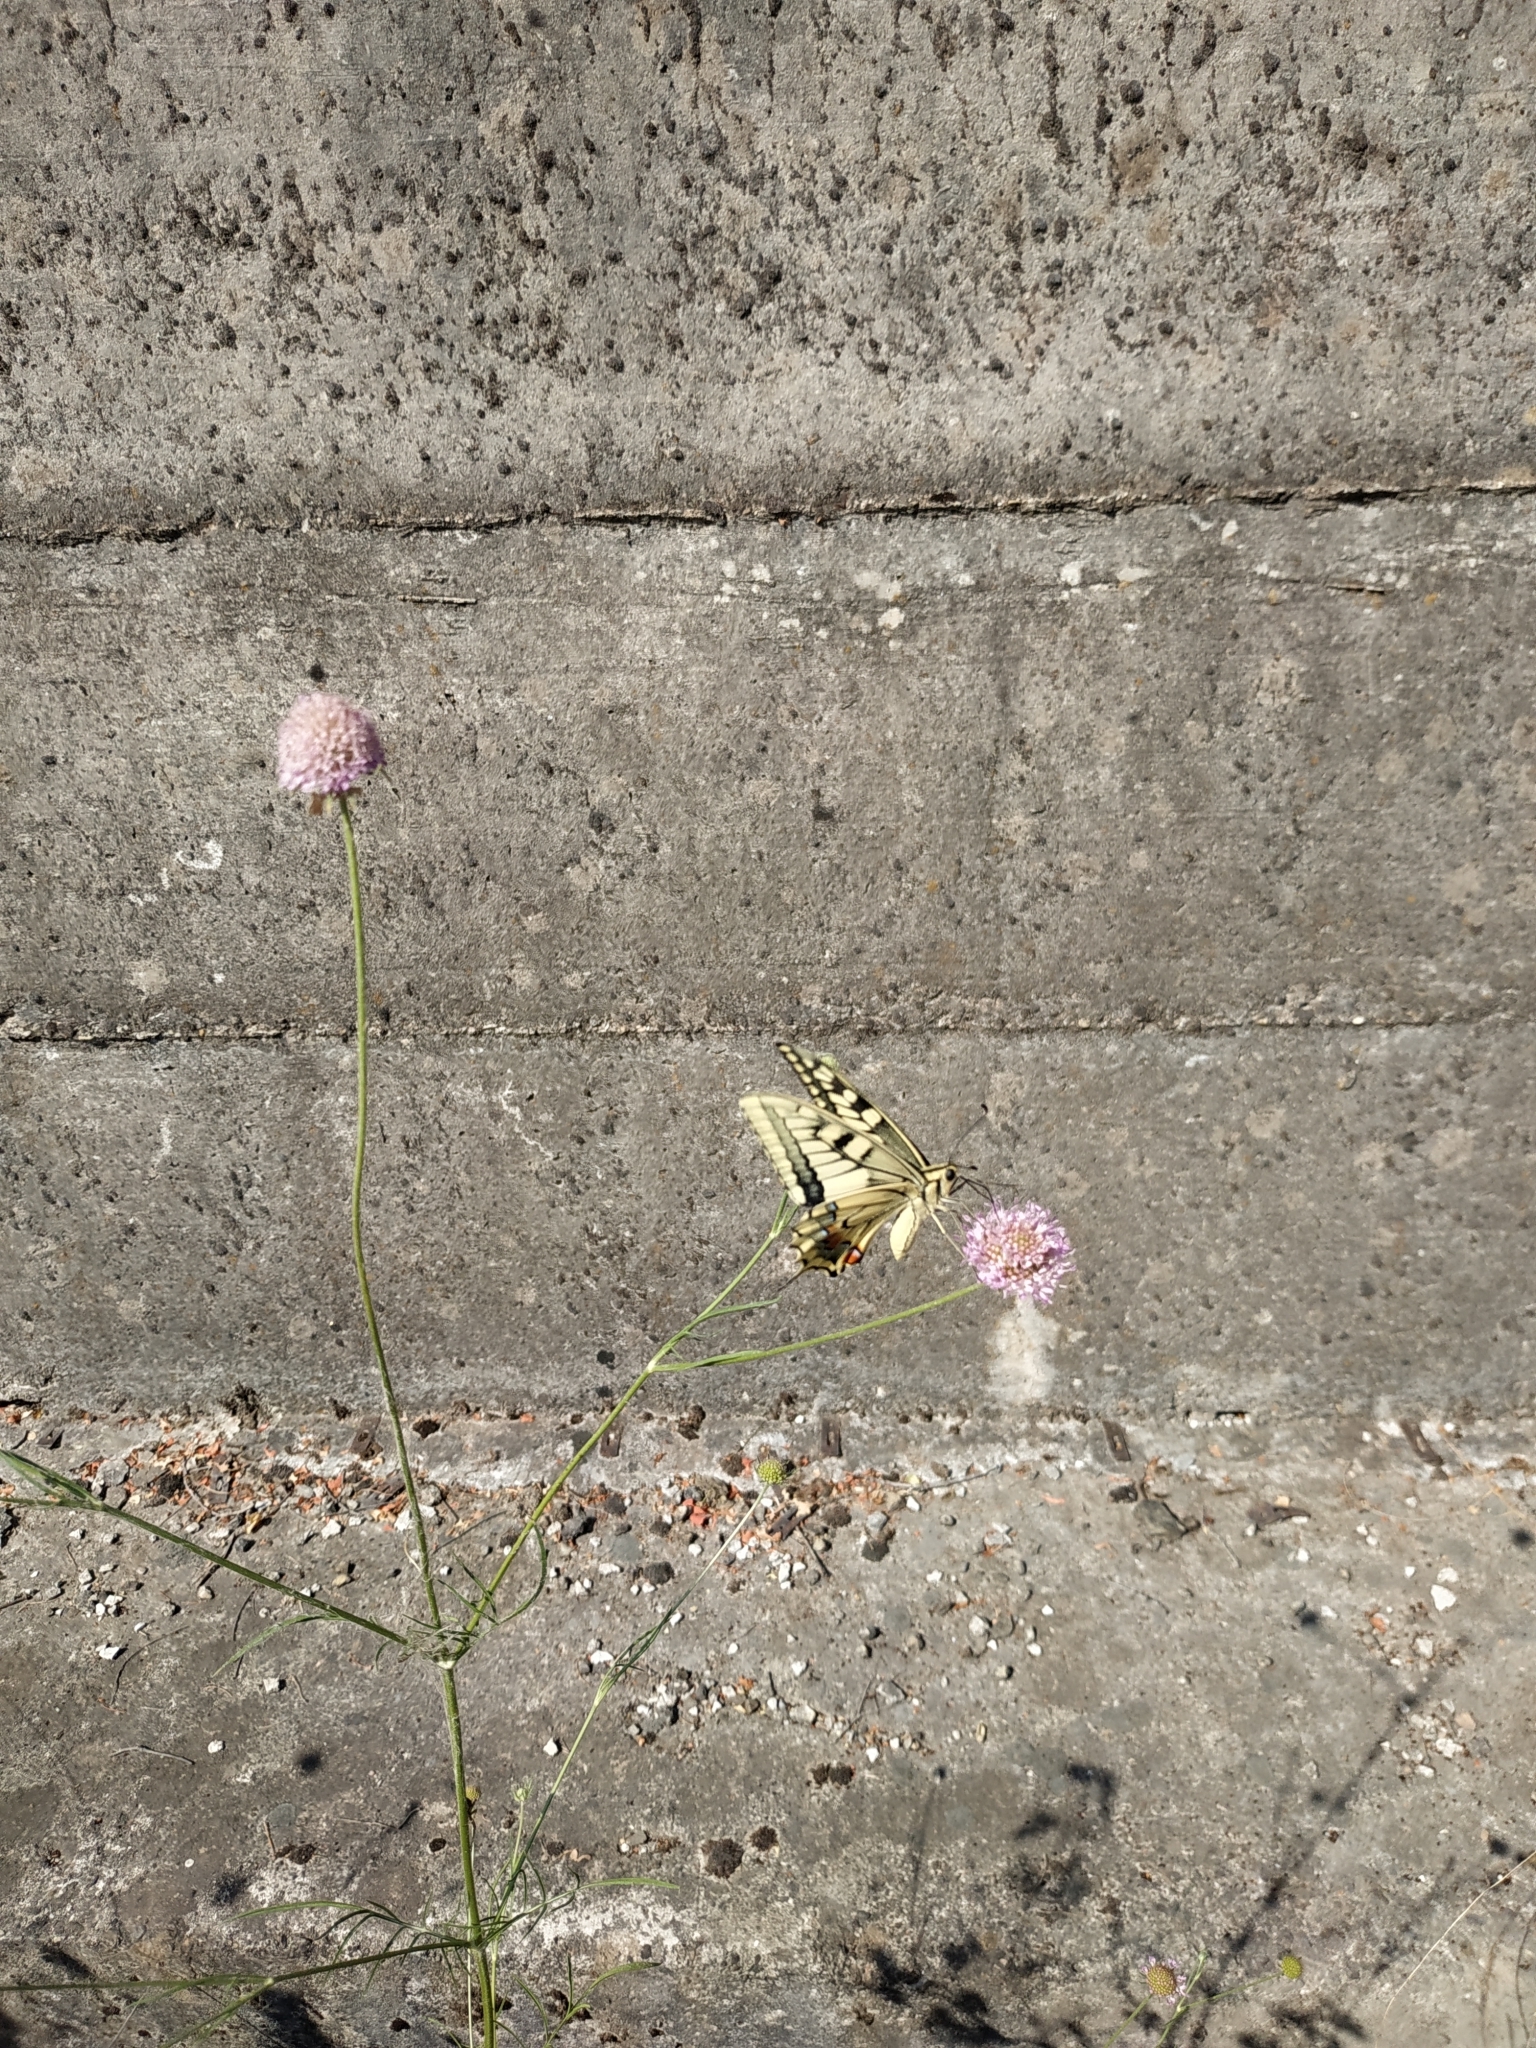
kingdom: Animalia
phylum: Arthropoda
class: Insecta
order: Lepidoptera
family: Papilionidae
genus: Papilio
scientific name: Papilio machaon
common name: Swallowtail
